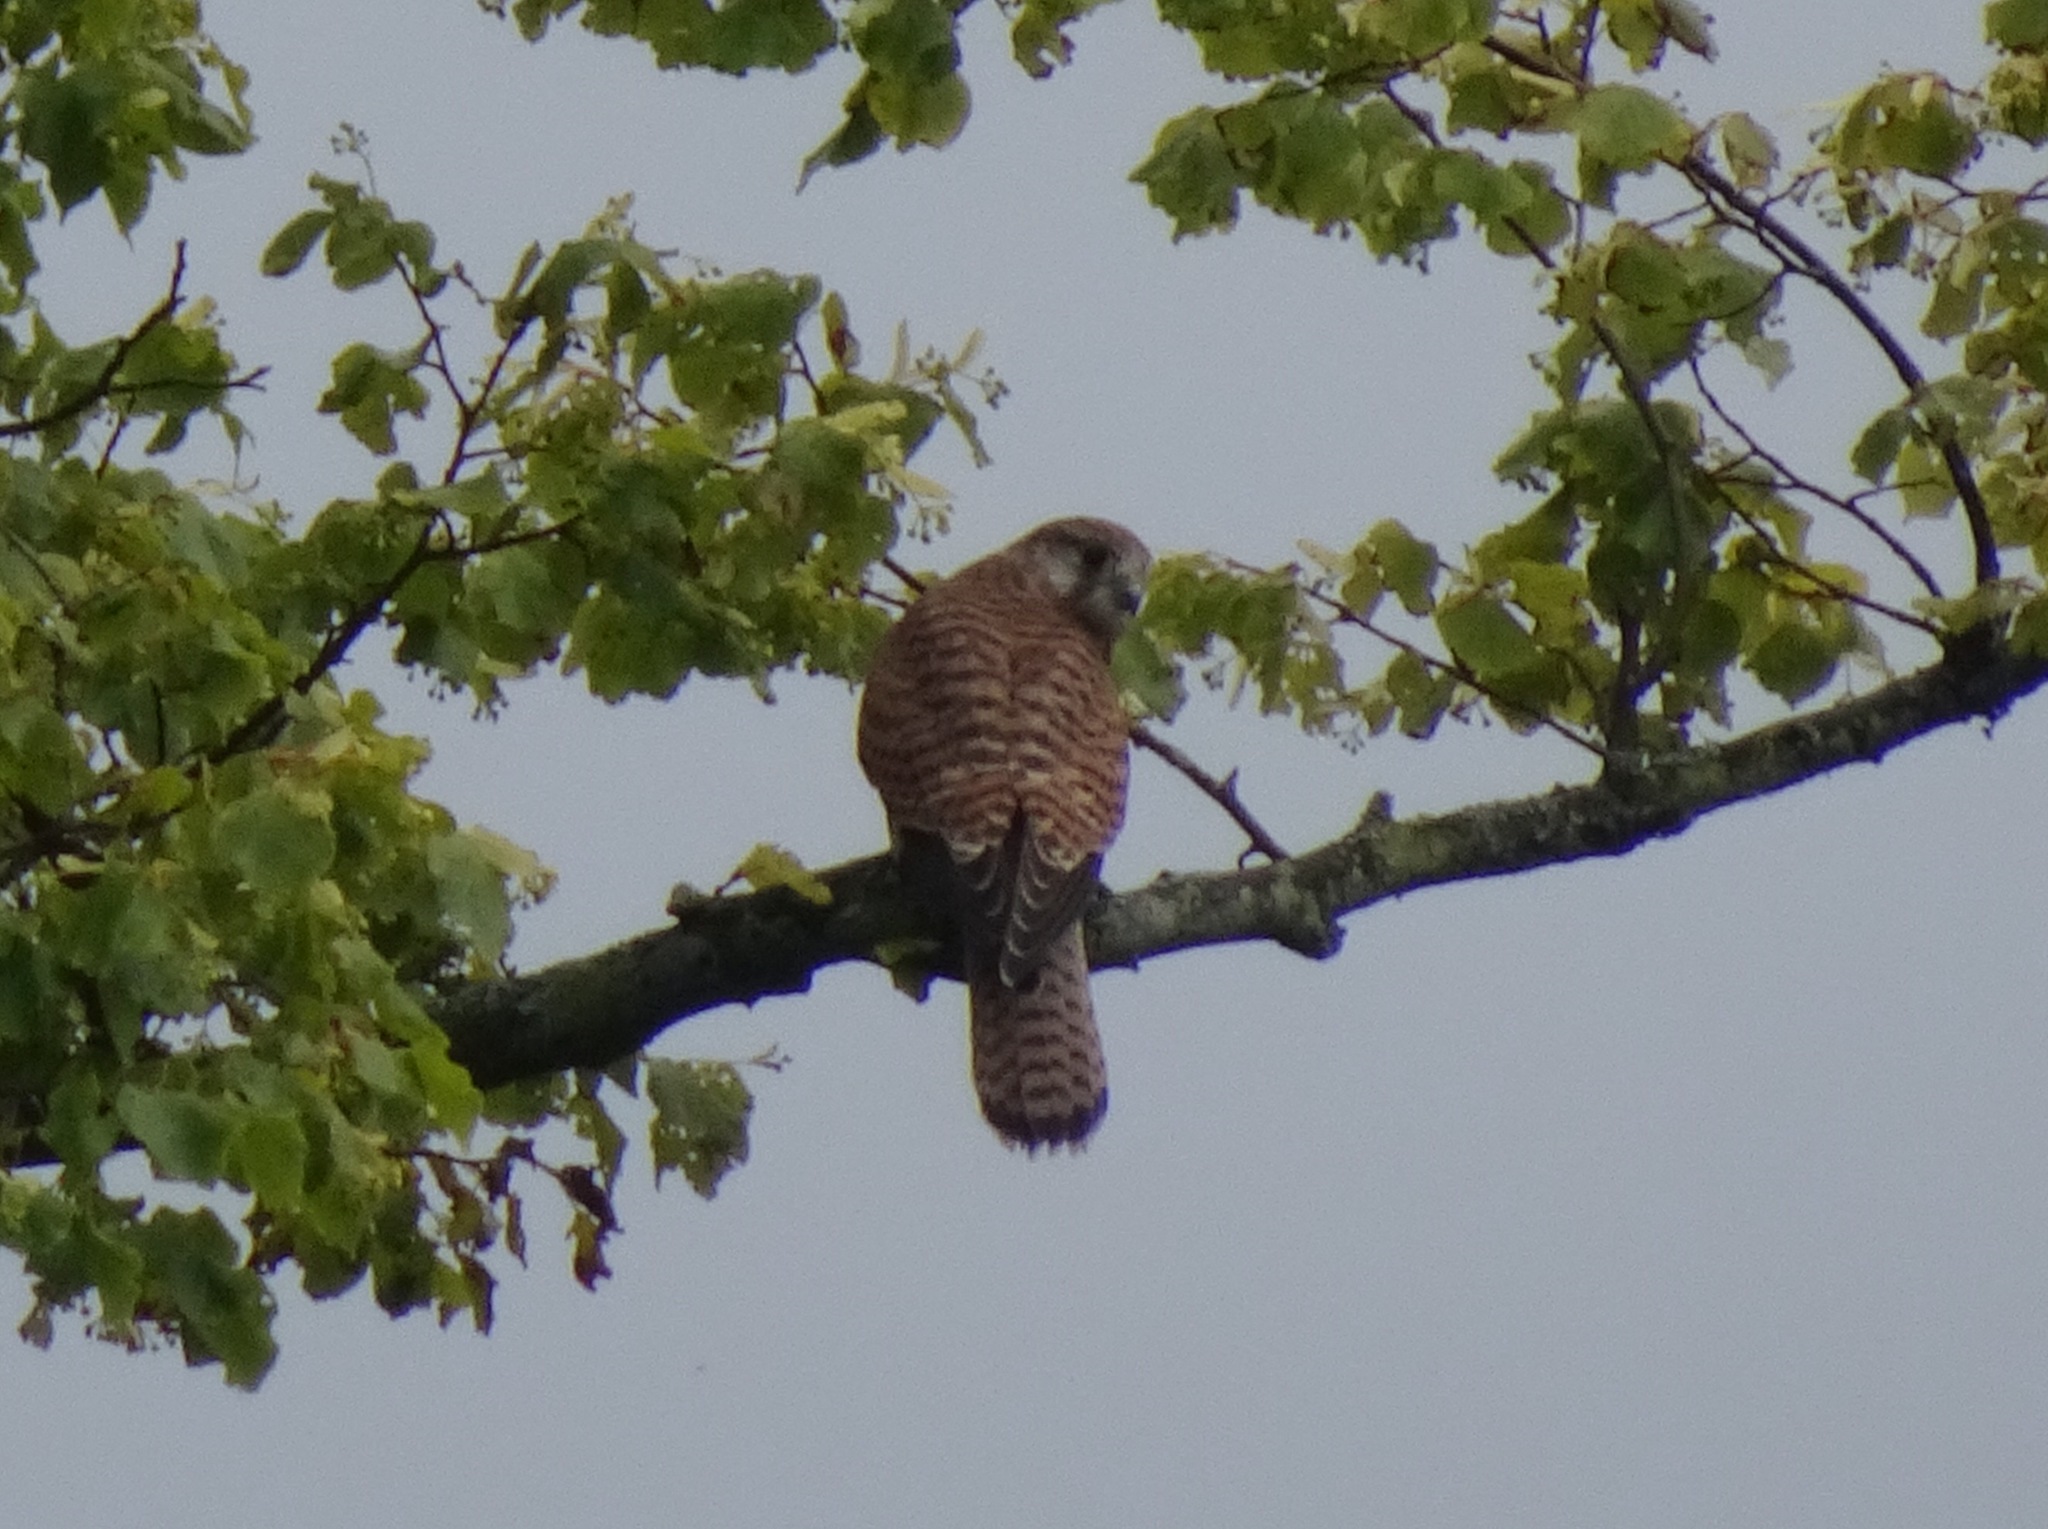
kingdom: Animalia
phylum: Chordata
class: Aves
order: Falconiformes
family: Falconidae
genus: Falco
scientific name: Falco tinnunculus
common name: Common kestrel
